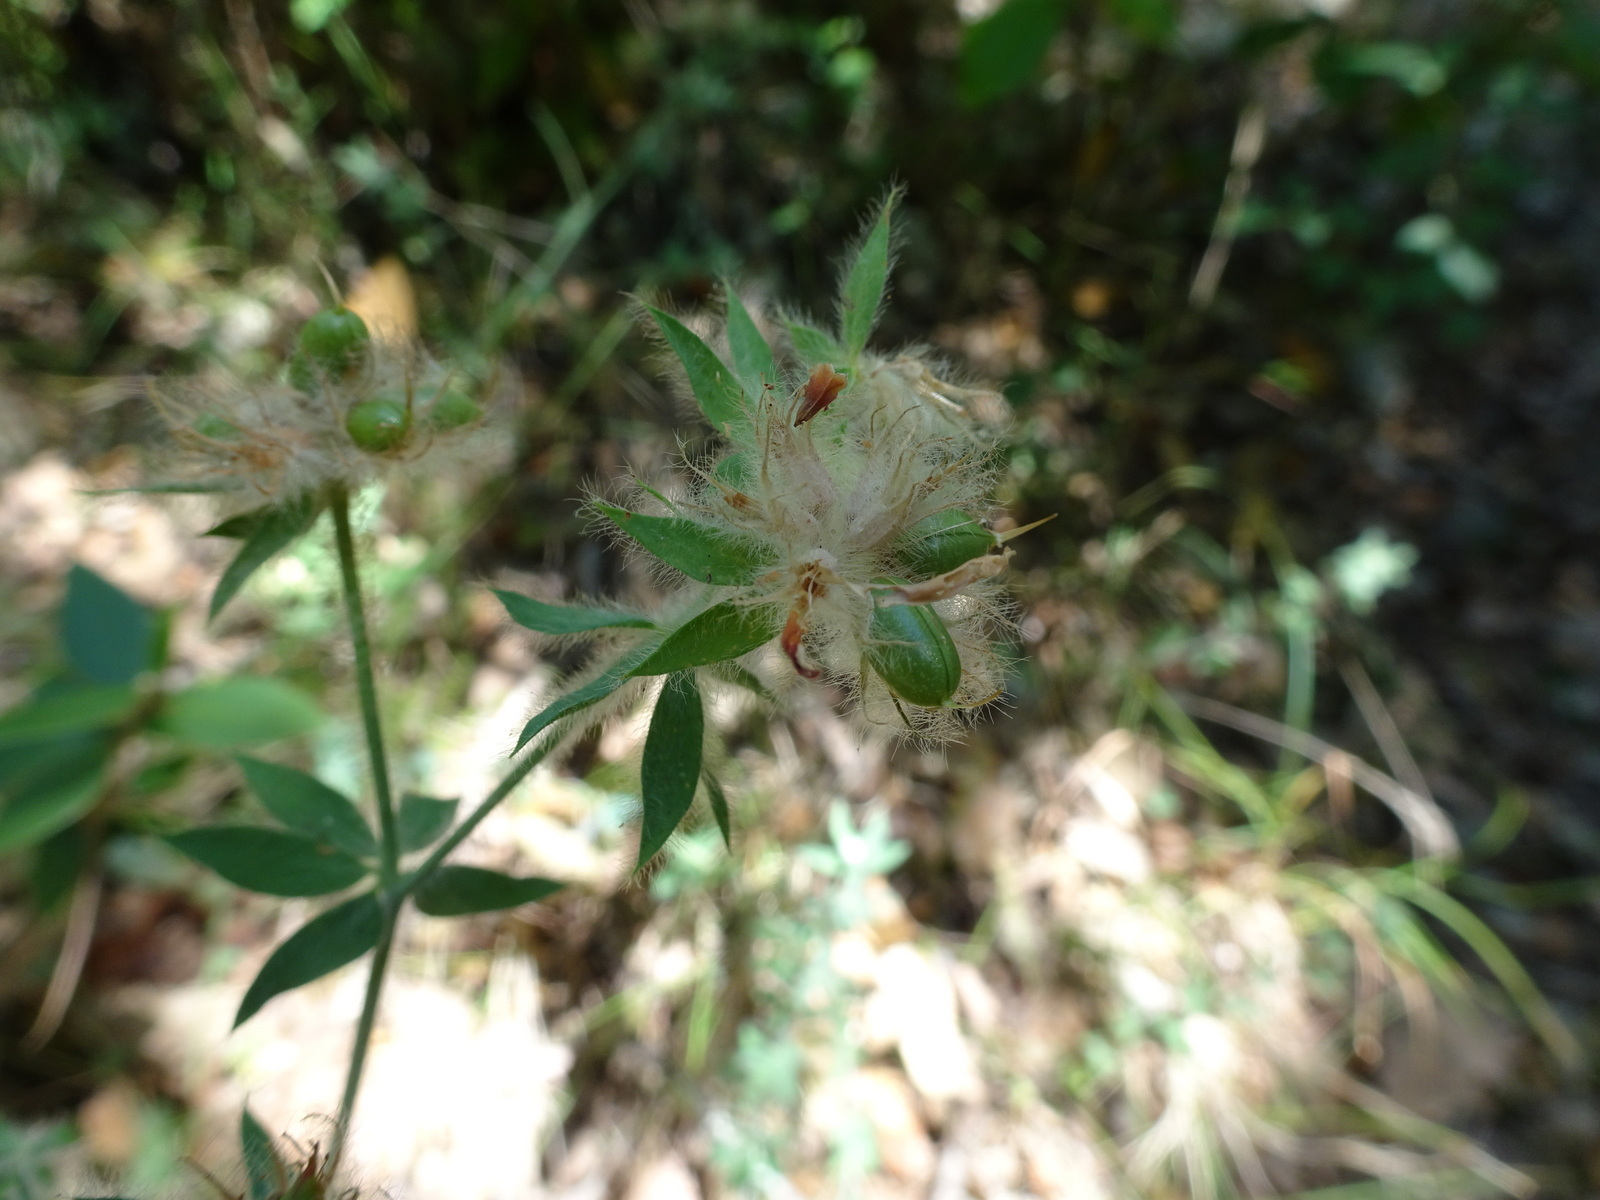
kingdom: Plantae
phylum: Tracheophyta
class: Magnoliopsida
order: Fabales
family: Fabaceae
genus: Lotus
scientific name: Lotus hirsutus
